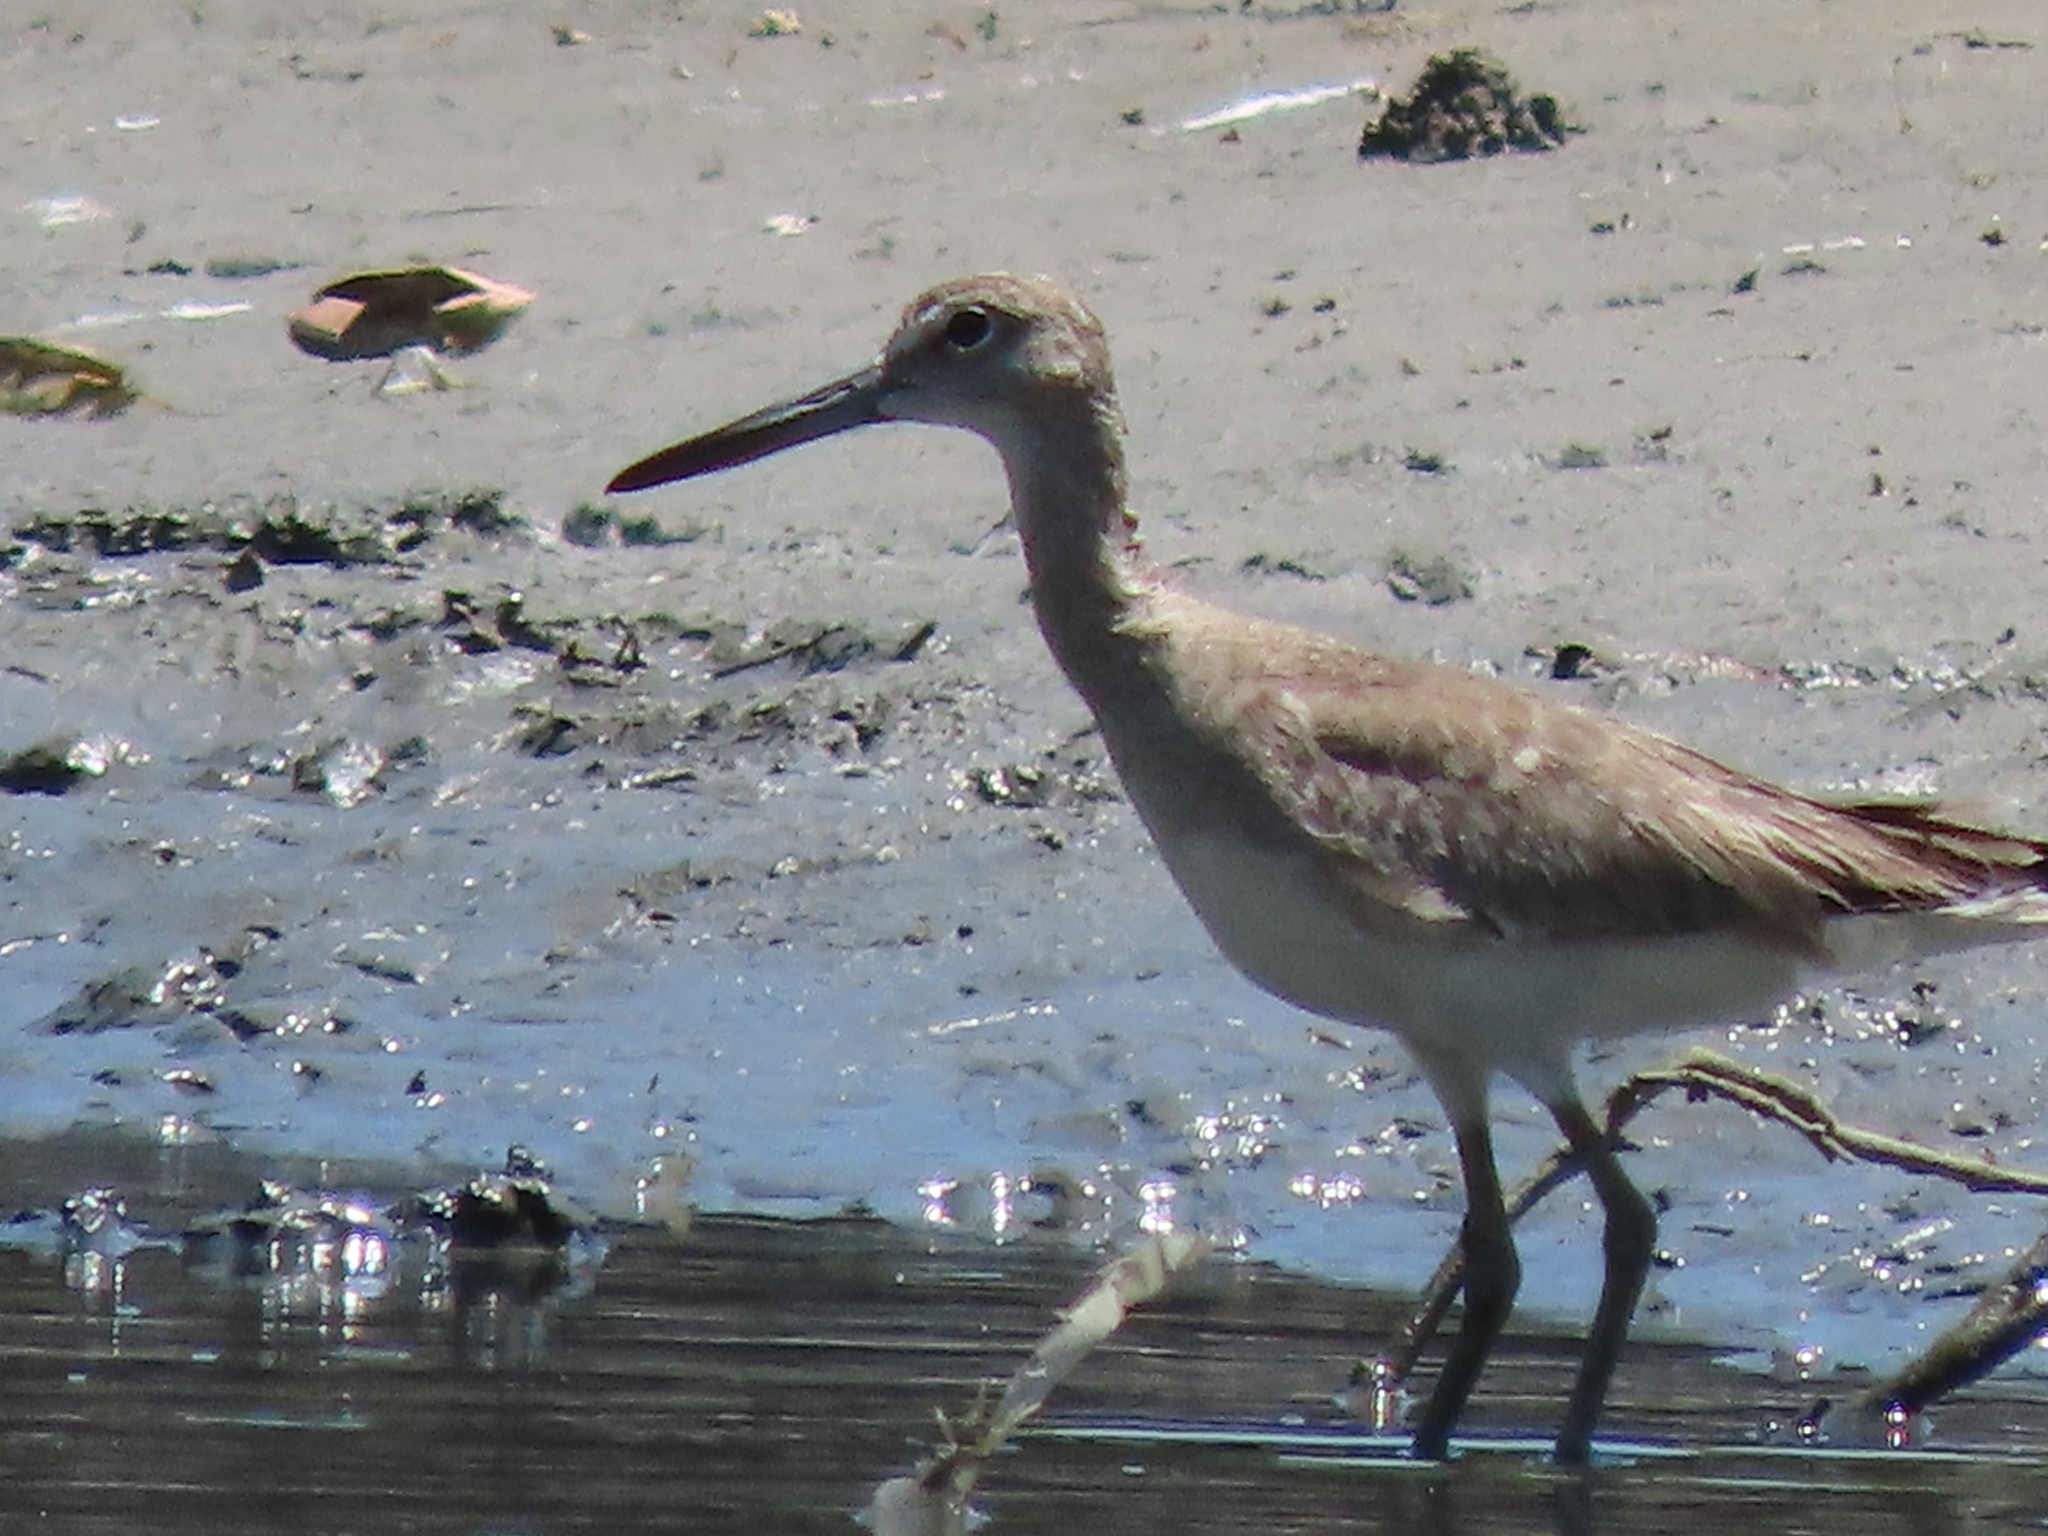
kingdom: Animalia
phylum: Chordata
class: Aves
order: Charadriiformes
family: Scolopacidae
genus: Tringa
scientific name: Tringa semipalmata
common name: Willet
